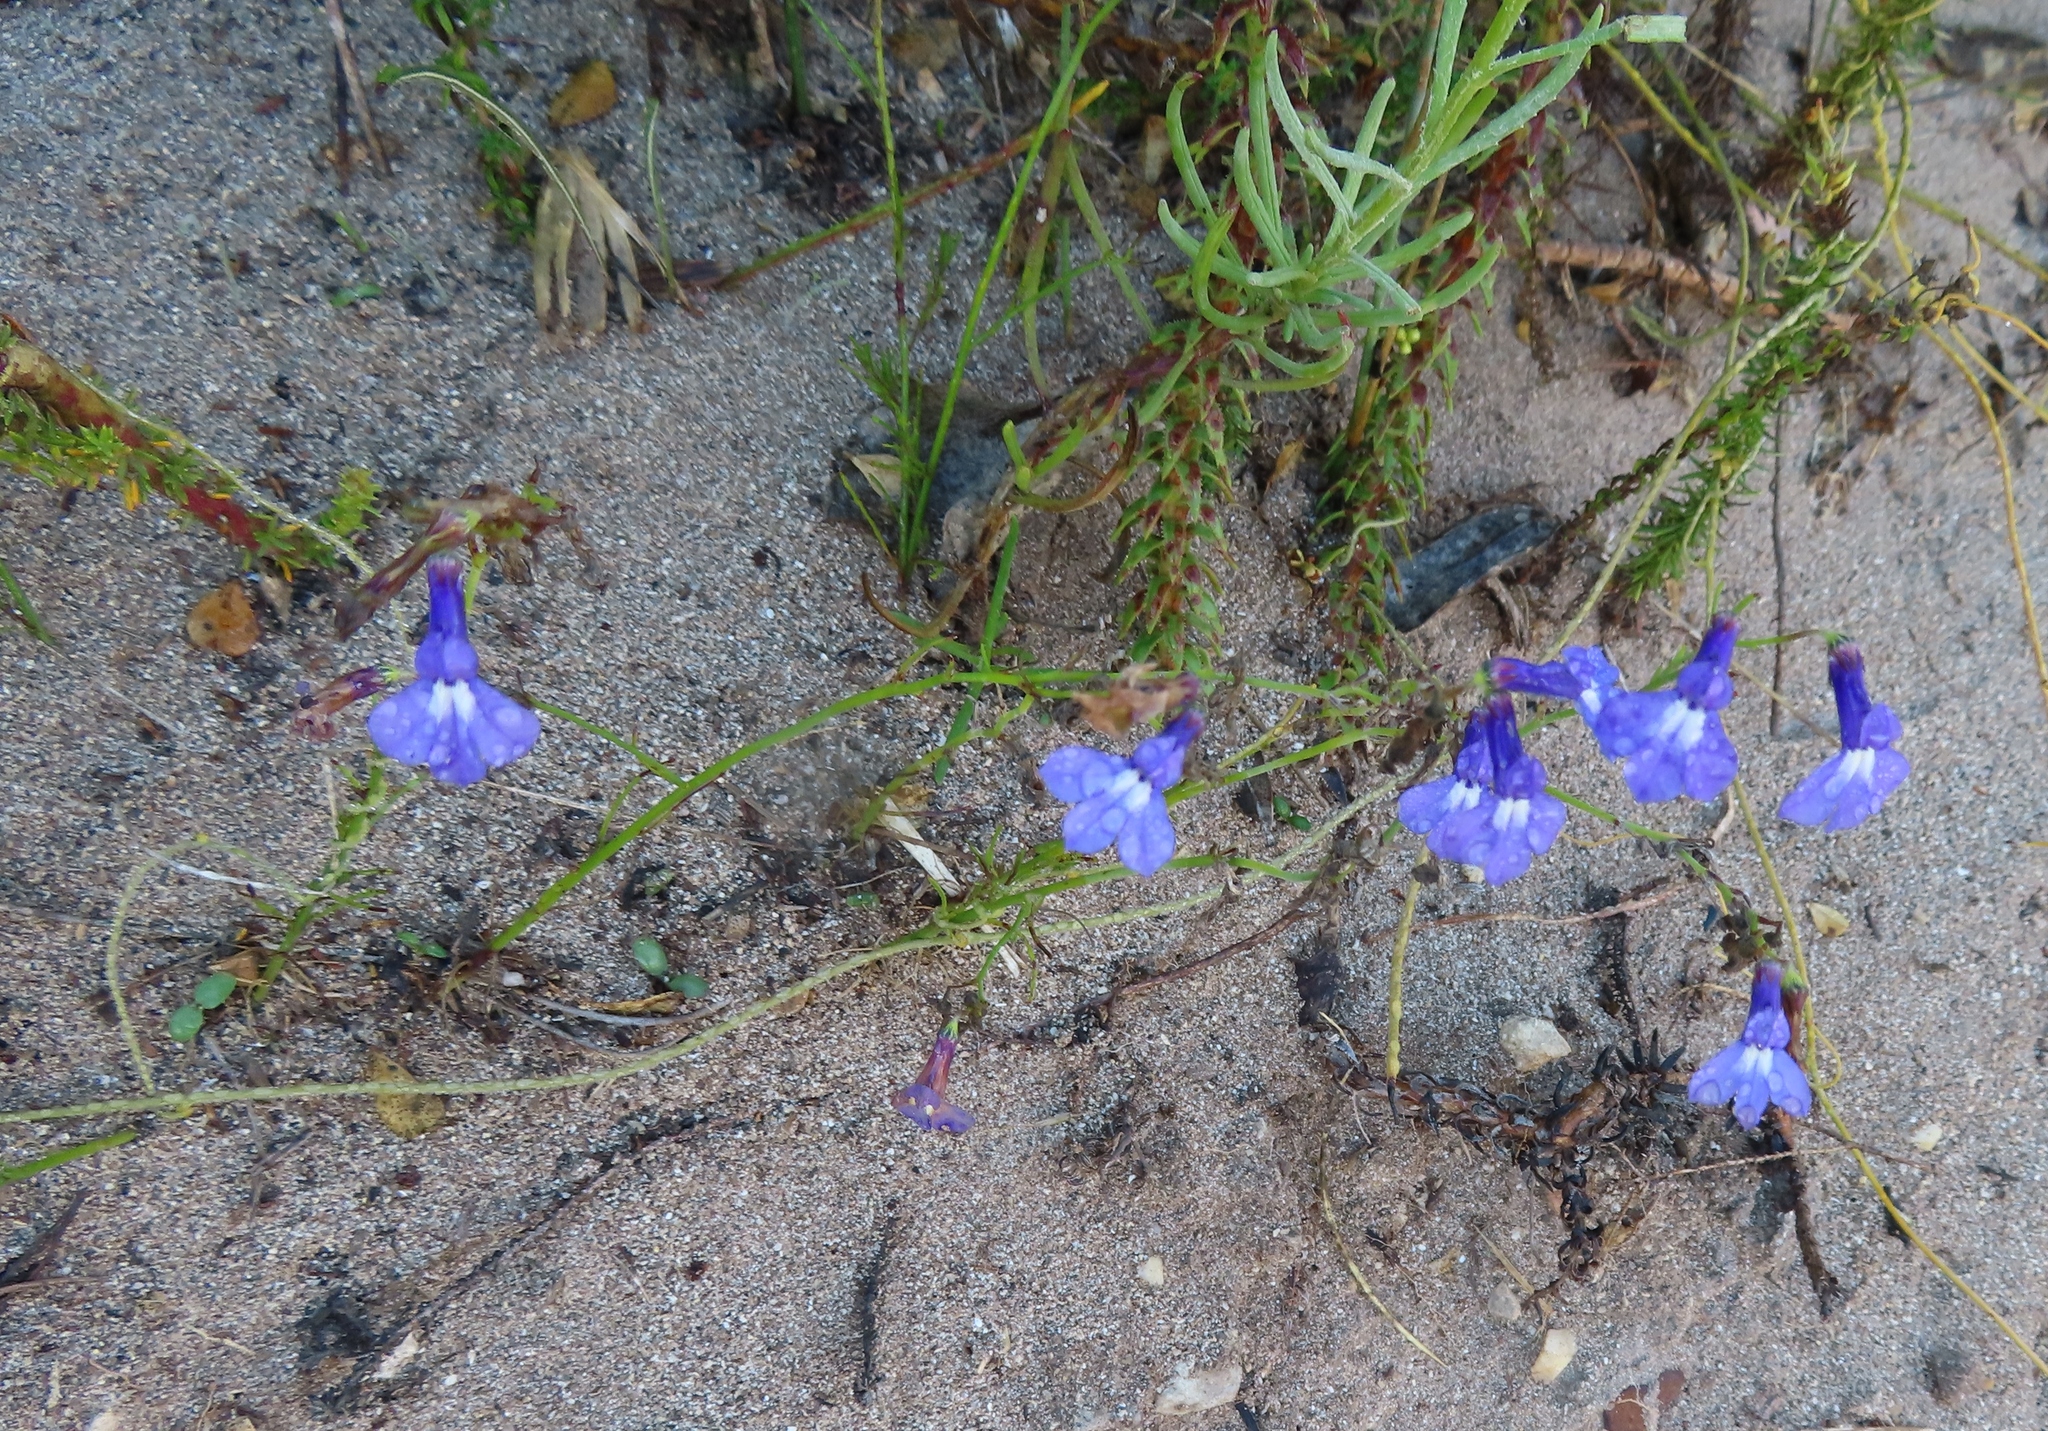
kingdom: Plantae
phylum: Tracheophyta
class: Magnoliopsida
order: Asterales
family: Campanulaceae
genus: Lobelia
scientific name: Lobelia setacea
